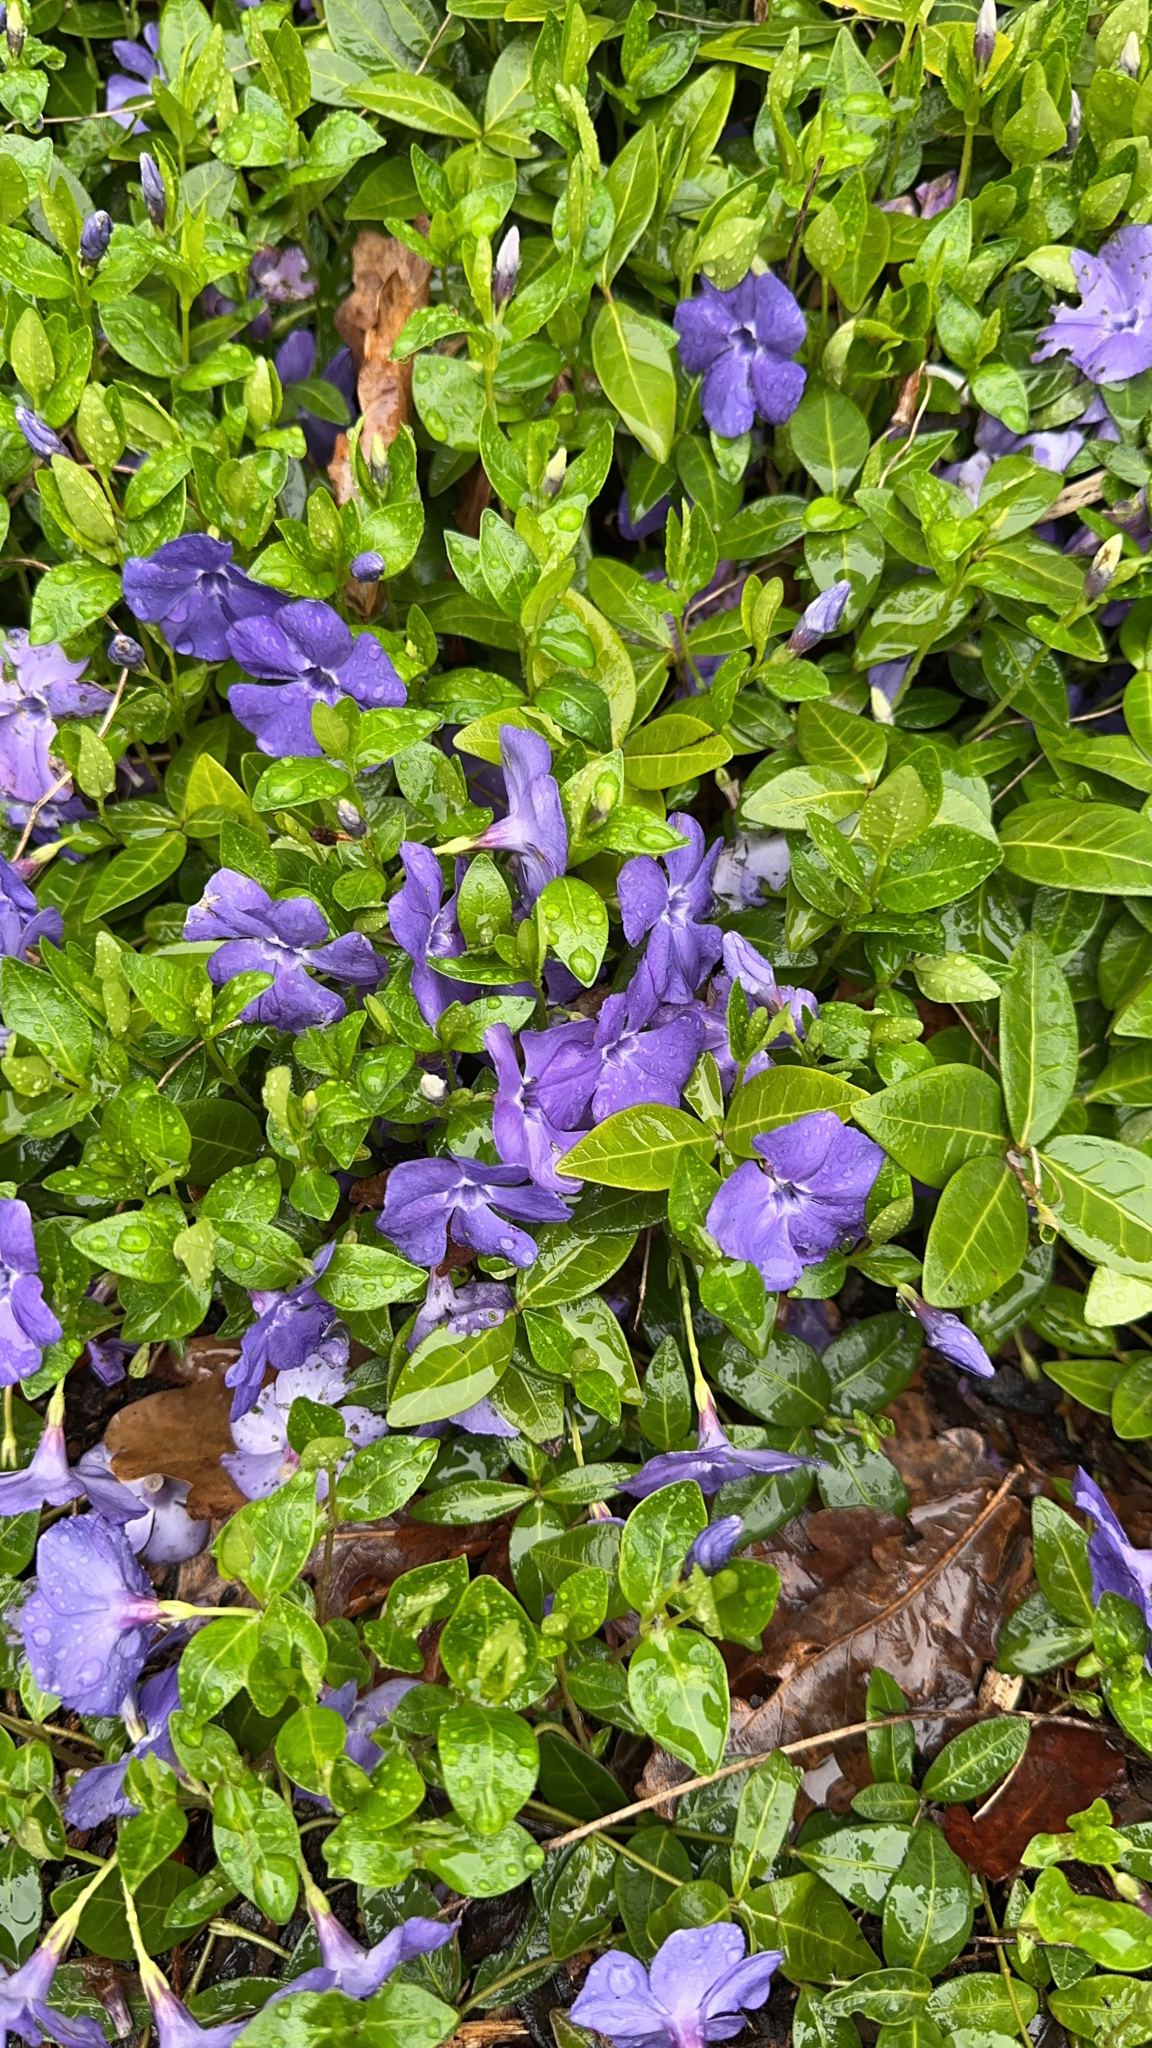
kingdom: Plantae
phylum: Tracheophyta
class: Magnoliopsida
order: Gentianales
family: Apocynaceae
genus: Vinca
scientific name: Vinca minor
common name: Lesser periwinkle
